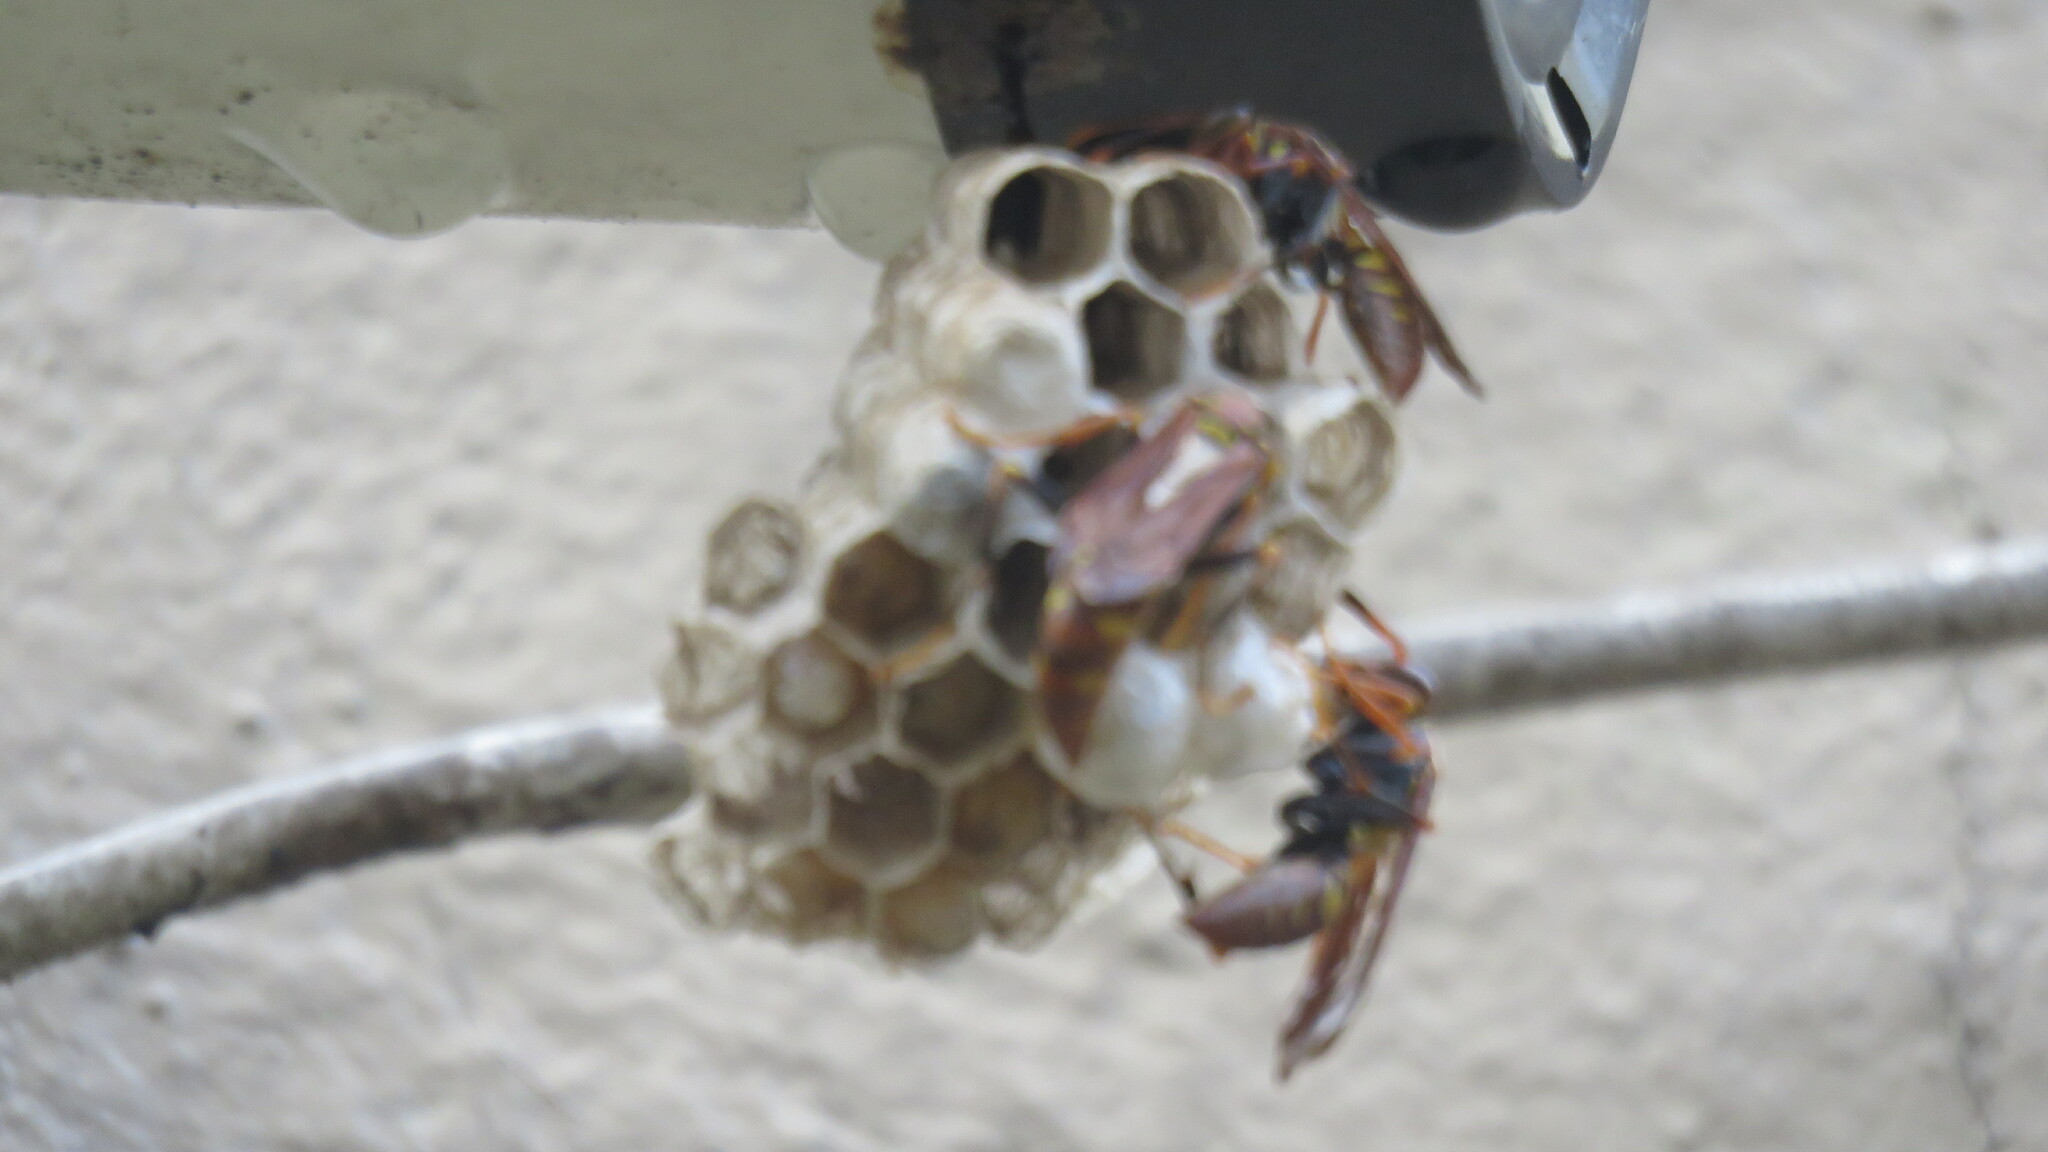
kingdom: Animalia
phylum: Arthropoda
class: Insecta
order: Hymenoptera
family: Eumenidae
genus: Polistes
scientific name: Polistes versicolor
